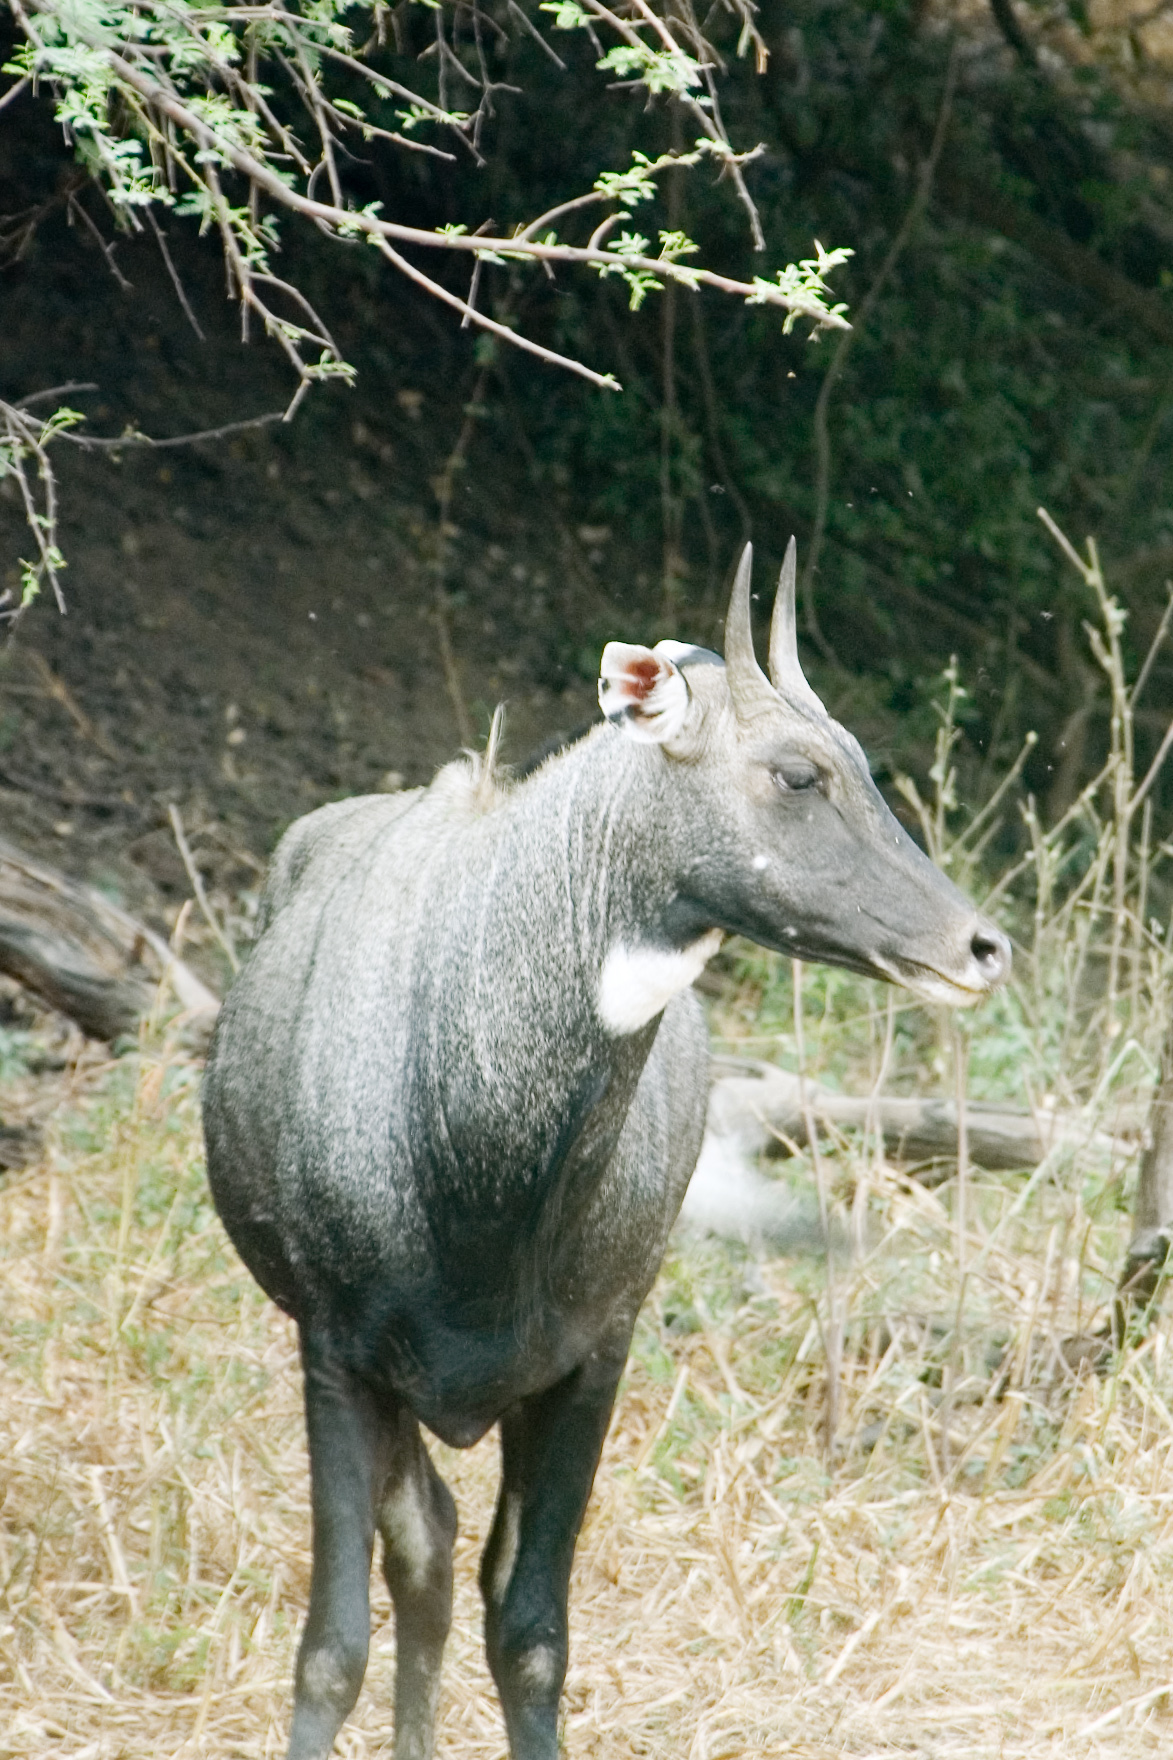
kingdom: Animalia
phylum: Chordata
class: Mammalia
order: Artiodactyla
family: Bovidae
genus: Boselaphus
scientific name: Boselaphus tragocamelus
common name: Nilgai
